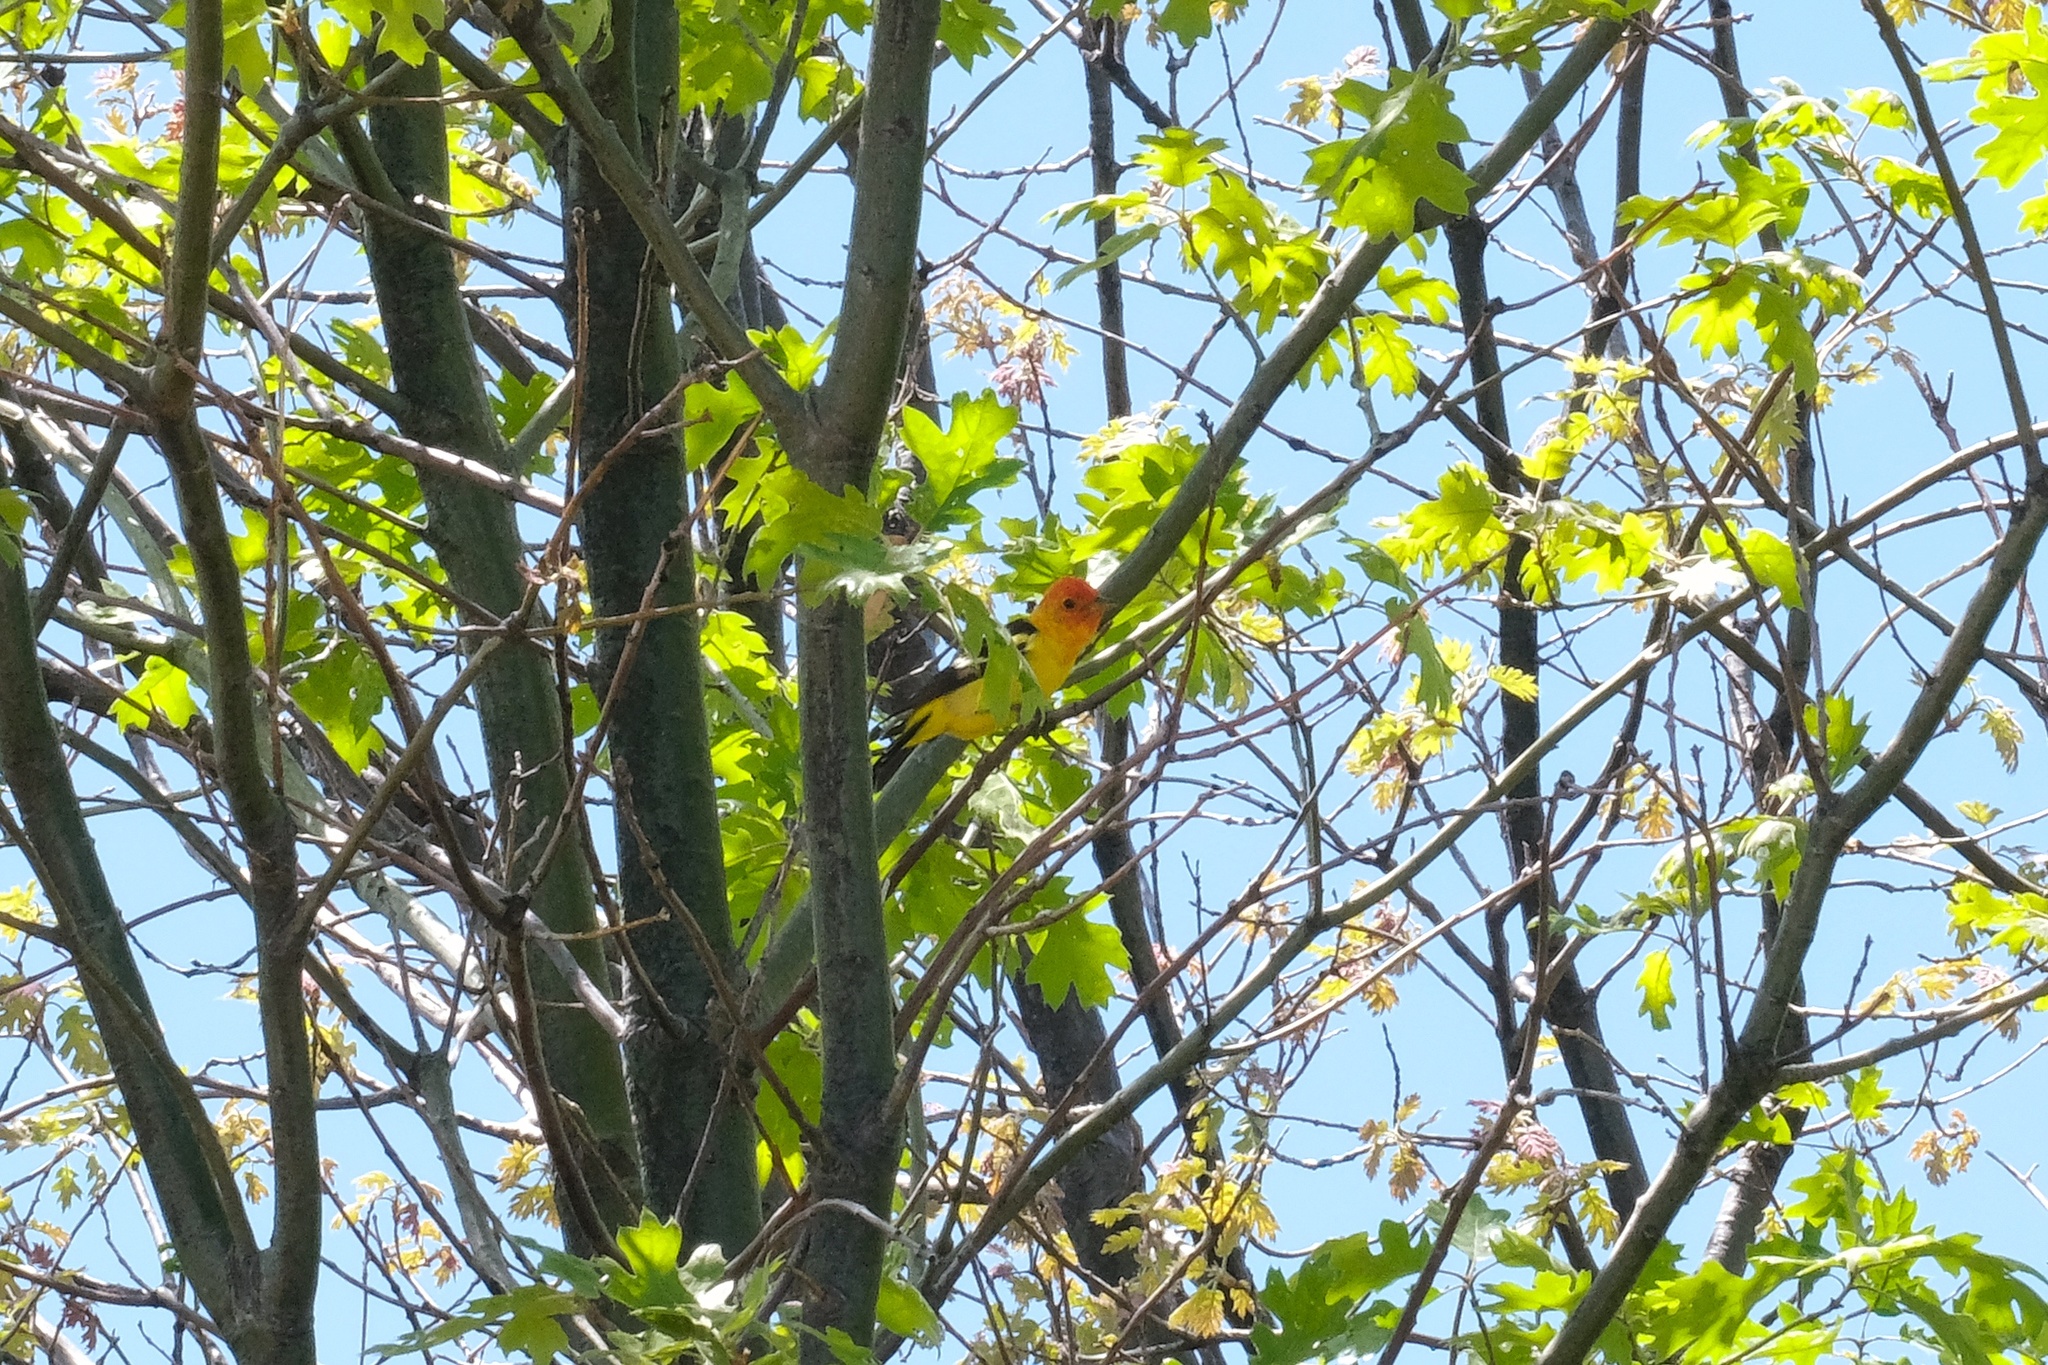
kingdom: Animalia
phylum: Chordata
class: Aves
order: Passeriformes
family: Cardinalidae
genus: Piranga
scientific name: Piranga ludoviciana
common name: Western tanager
